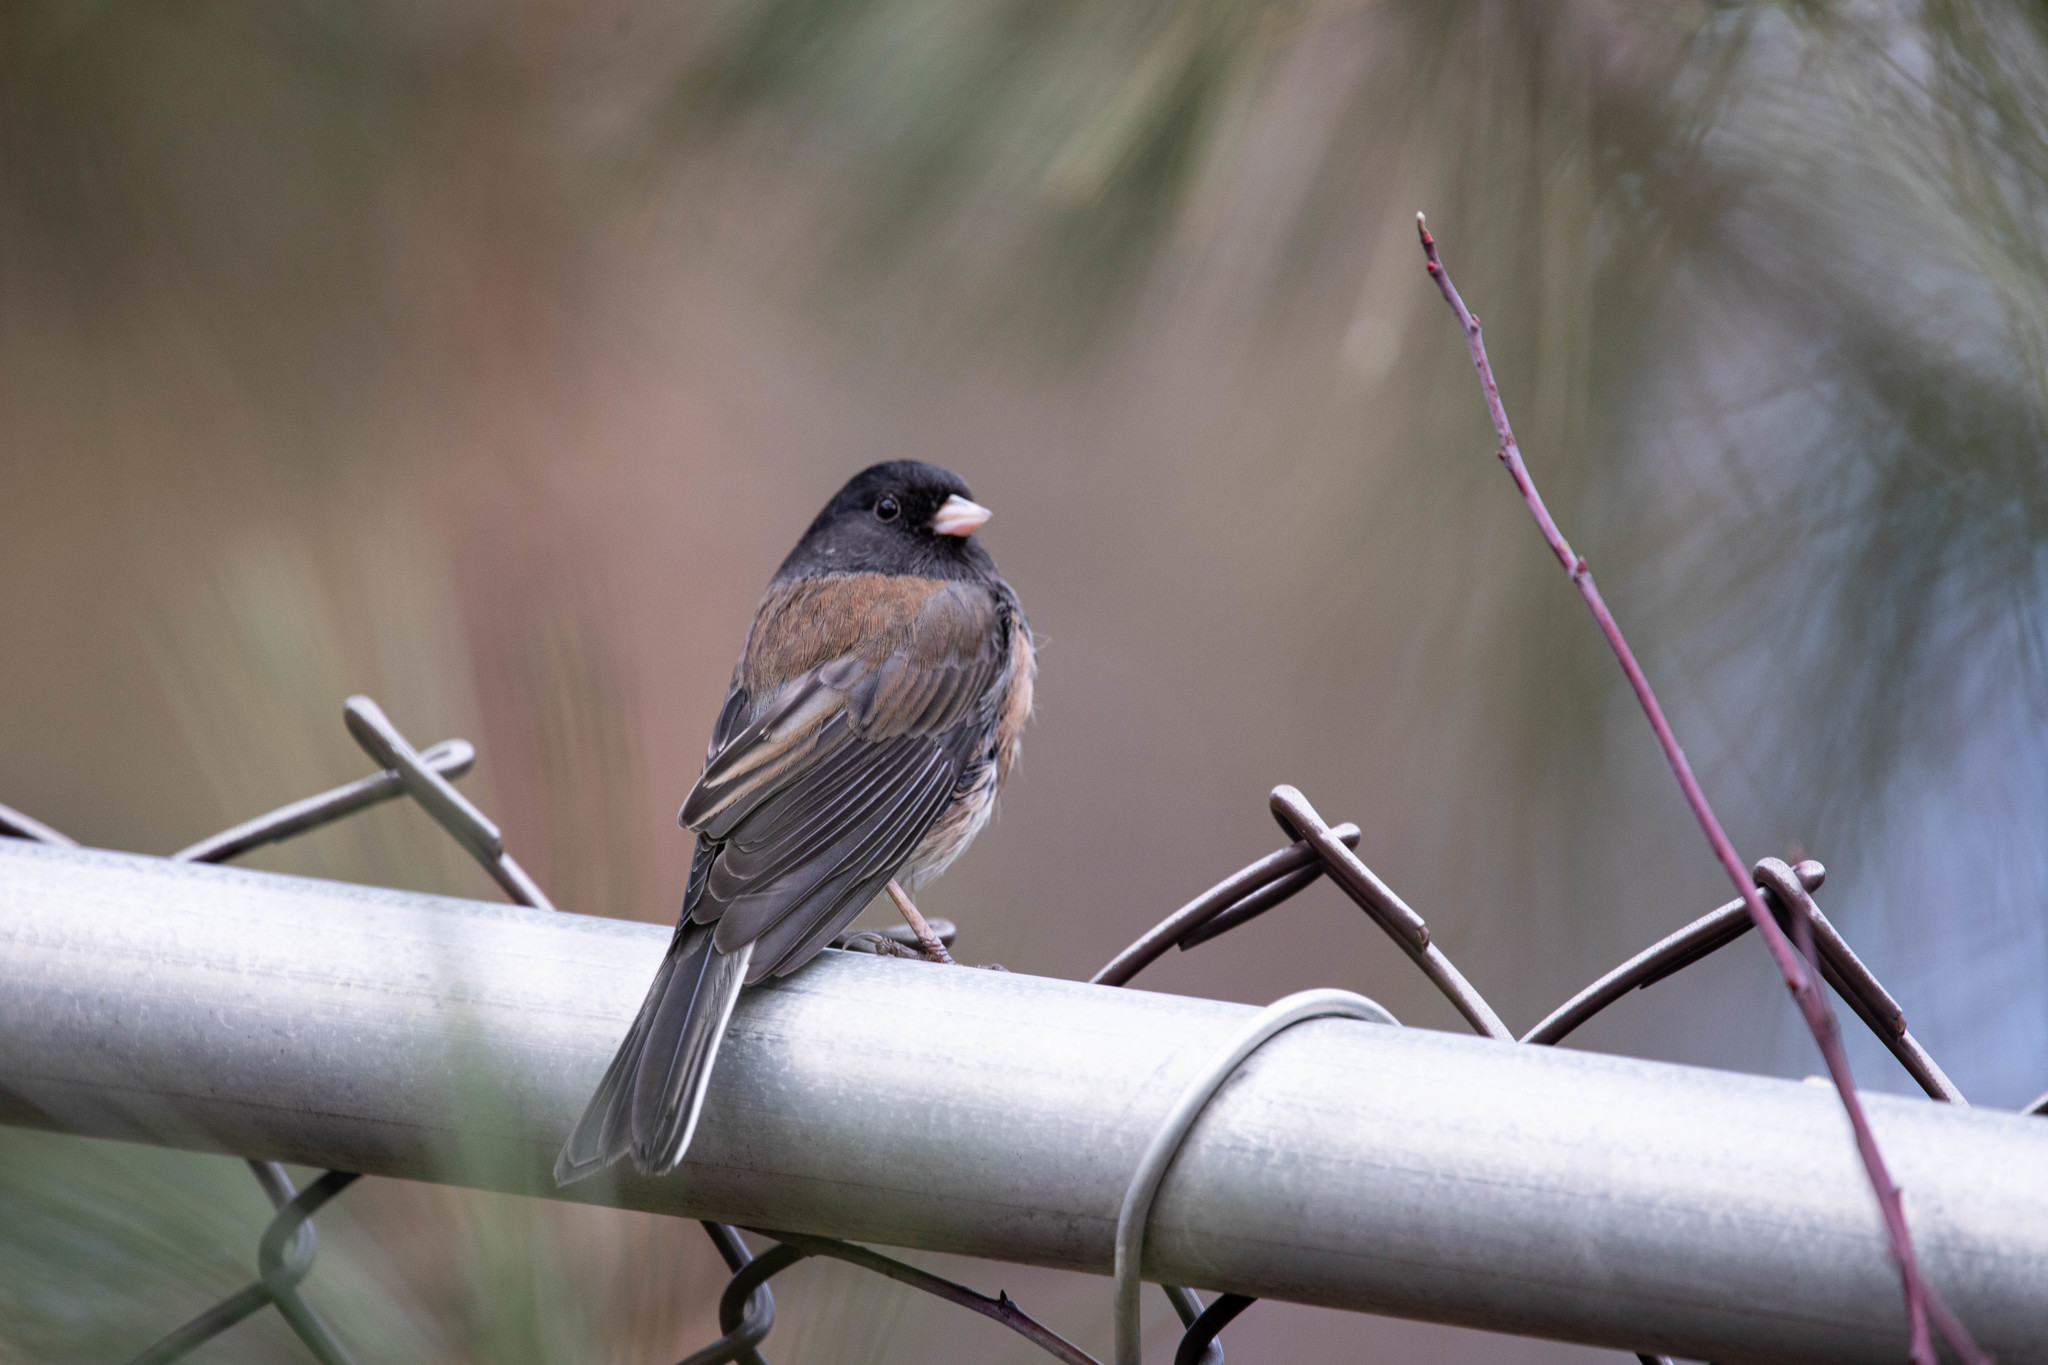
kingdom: Animalia
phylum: Chordata
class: Aves
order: Passeriformes
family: Passerellidae
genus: Junco
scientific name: Junco hyemalis
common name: Dark-eyed junco
